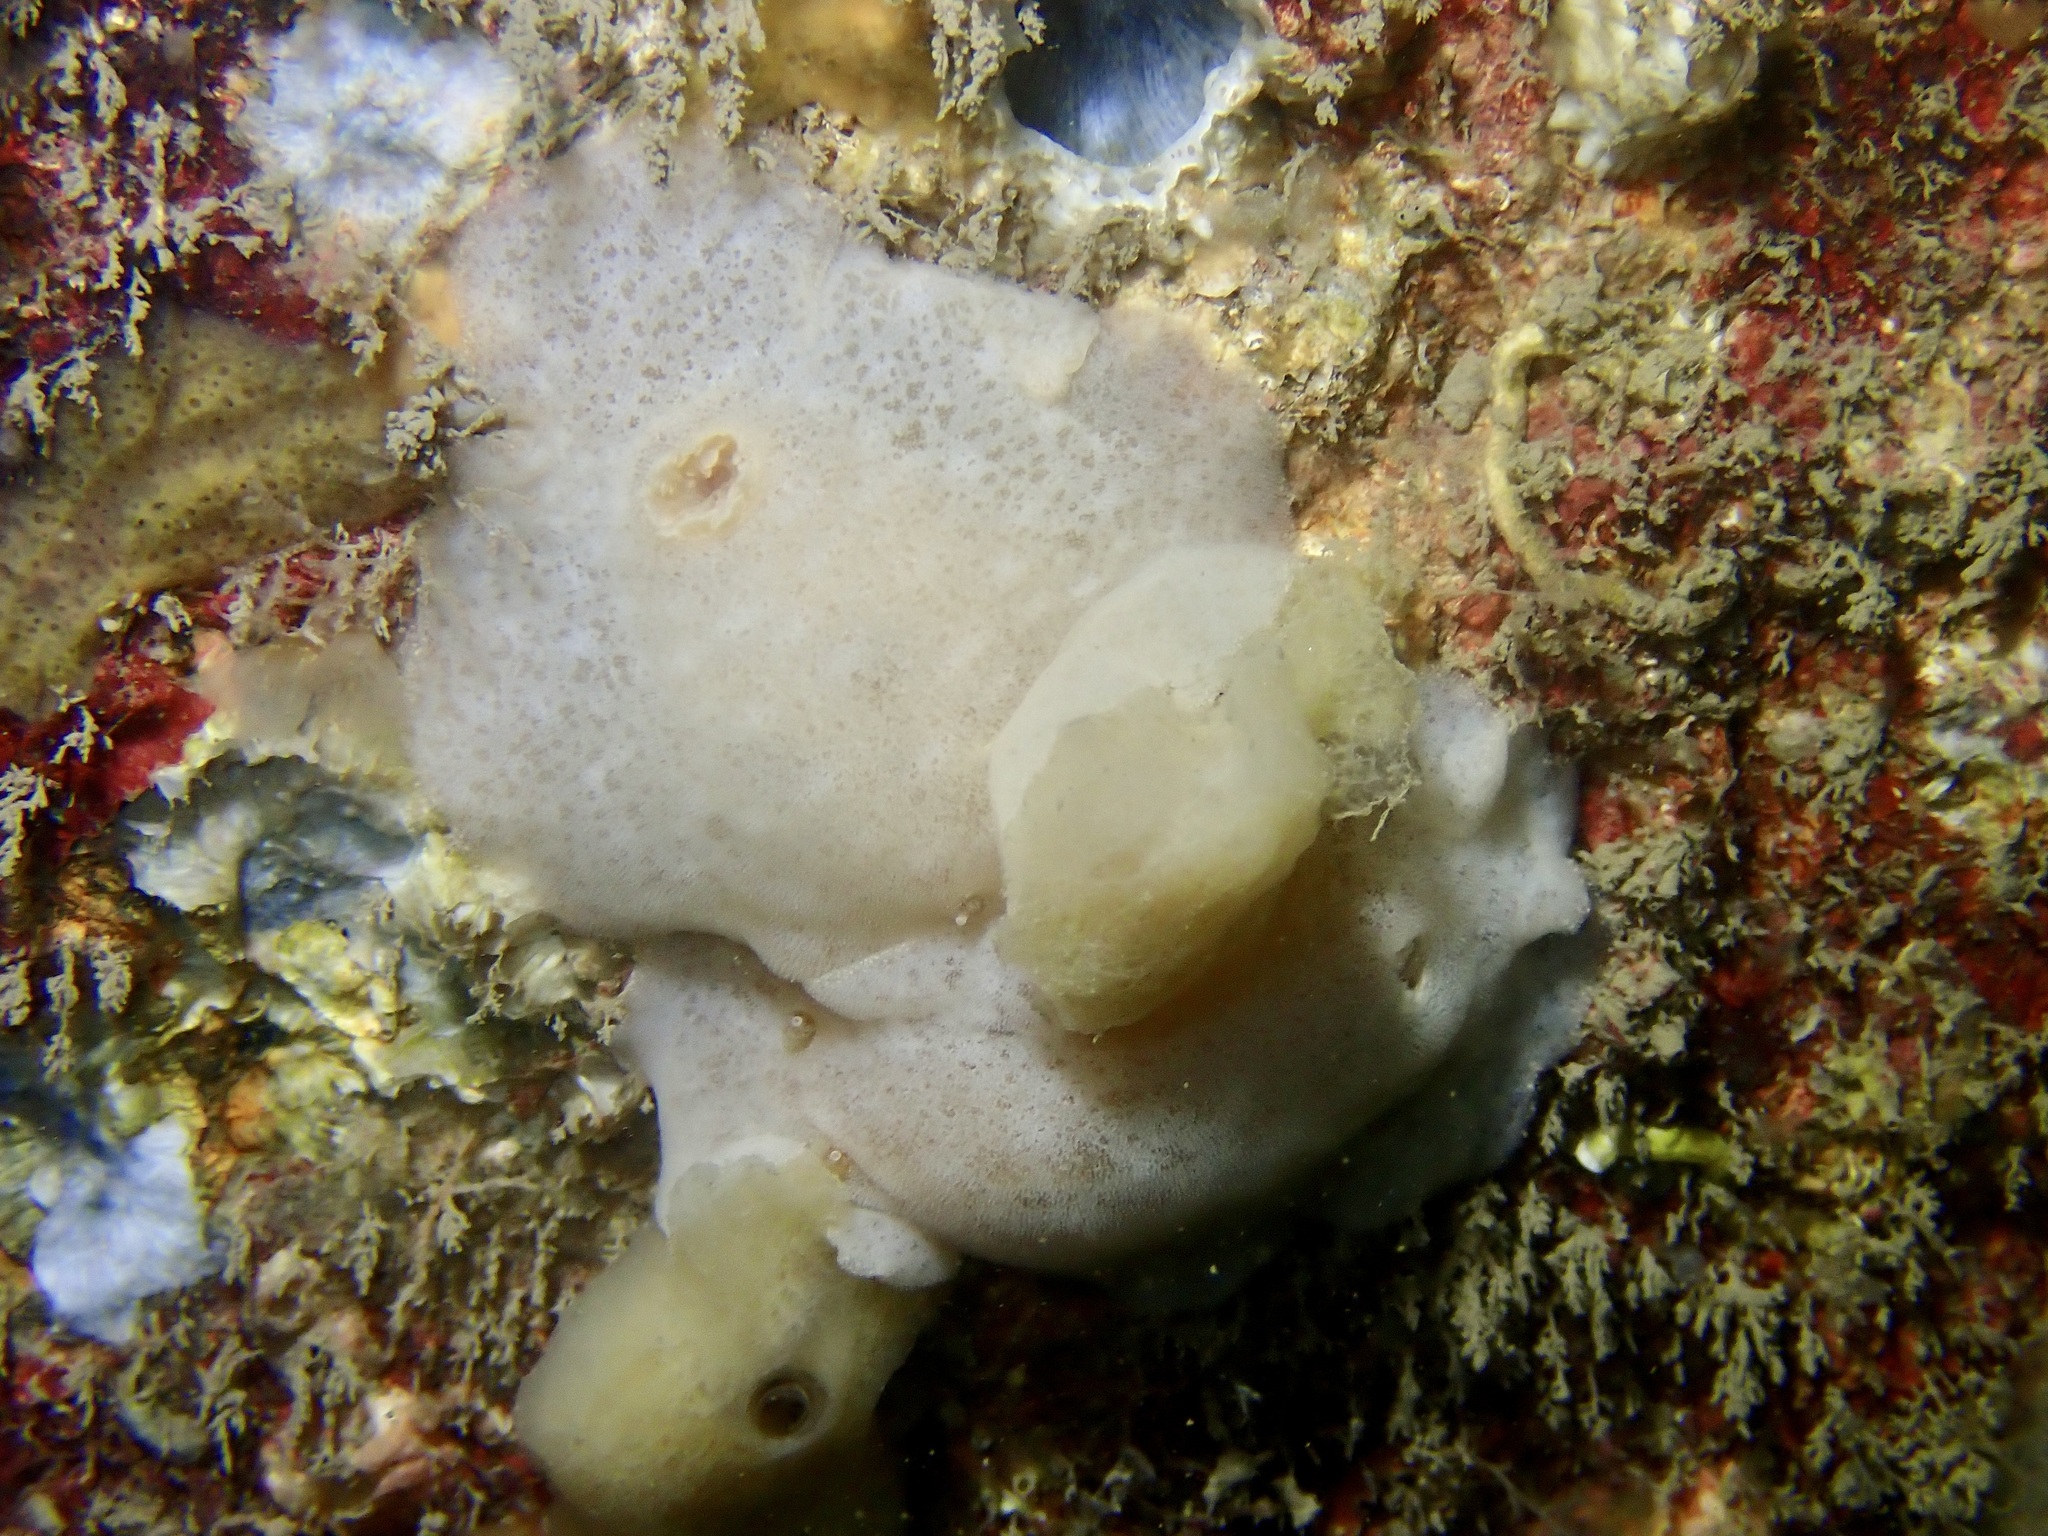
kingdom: Animalia
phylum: Mollusca
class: Gastropoda
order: Nudibranchia
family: Discodorididae
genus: Jorunna
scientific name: Jorunna tomentosa
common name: Grey sea slug
